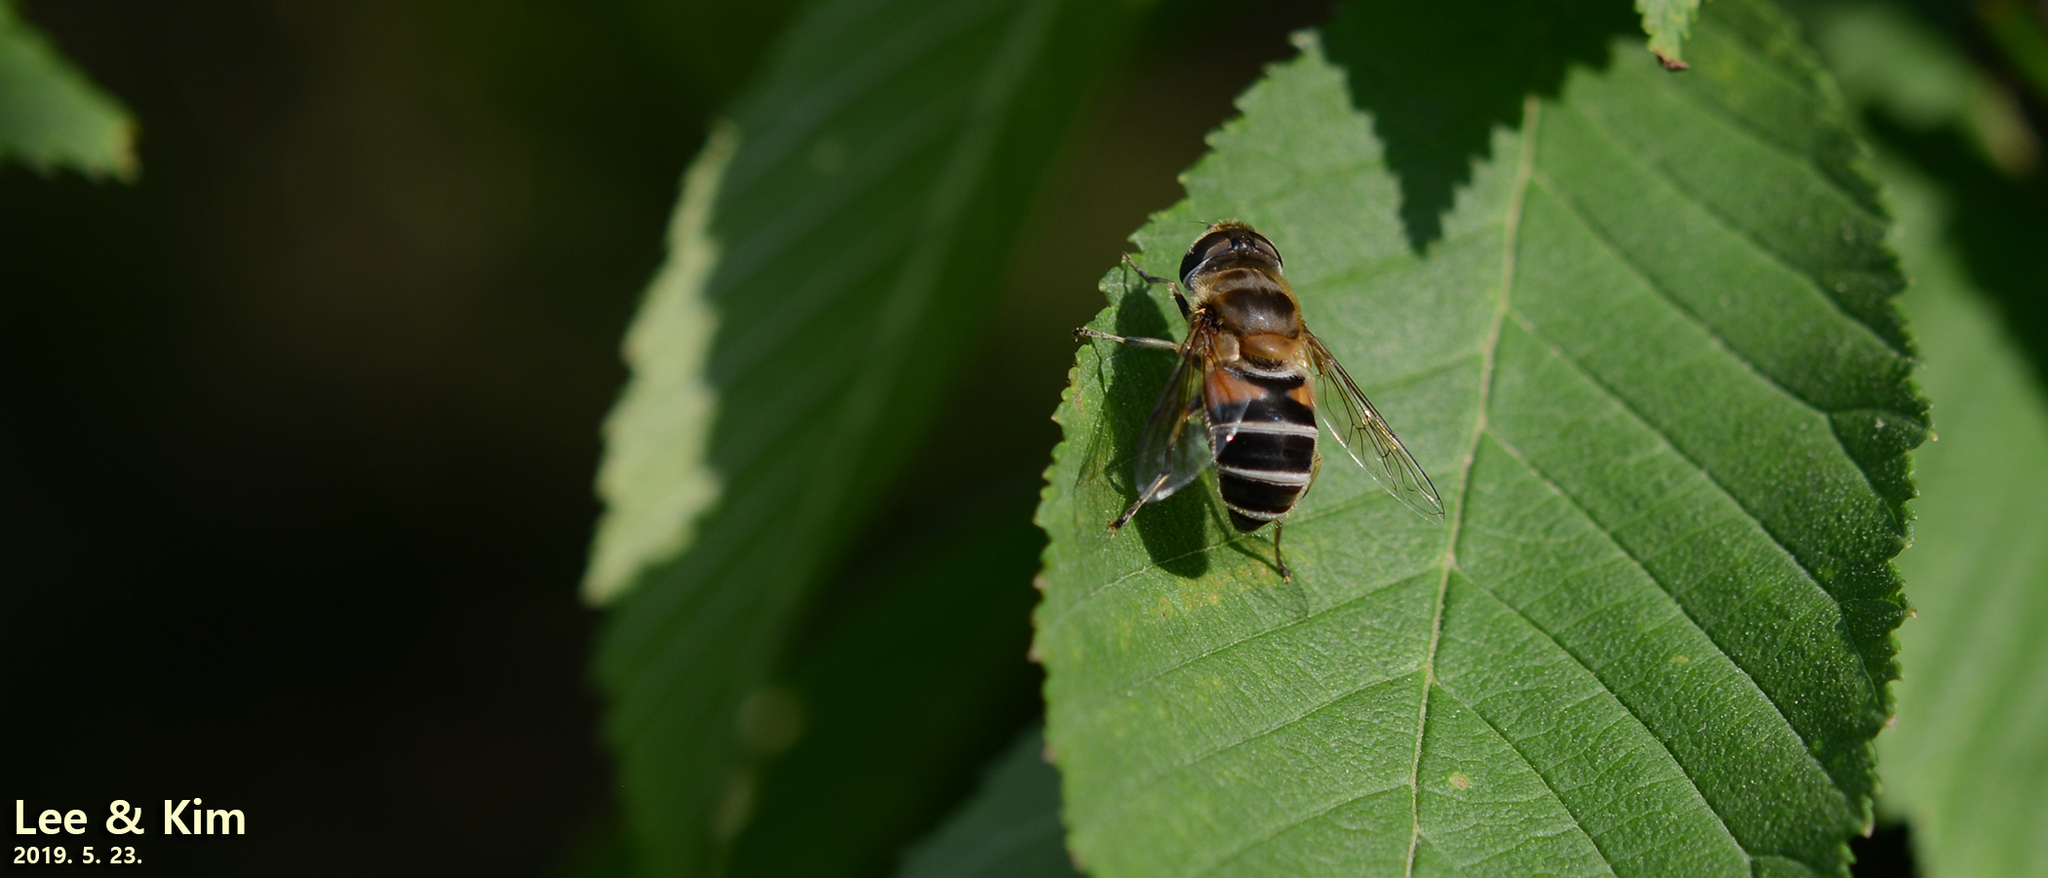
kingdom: Animalia
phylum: Arthropoda
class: Insecta
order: Diptera
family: Syrphidae
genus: Eristalis
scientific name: Eristalis kyokoae
